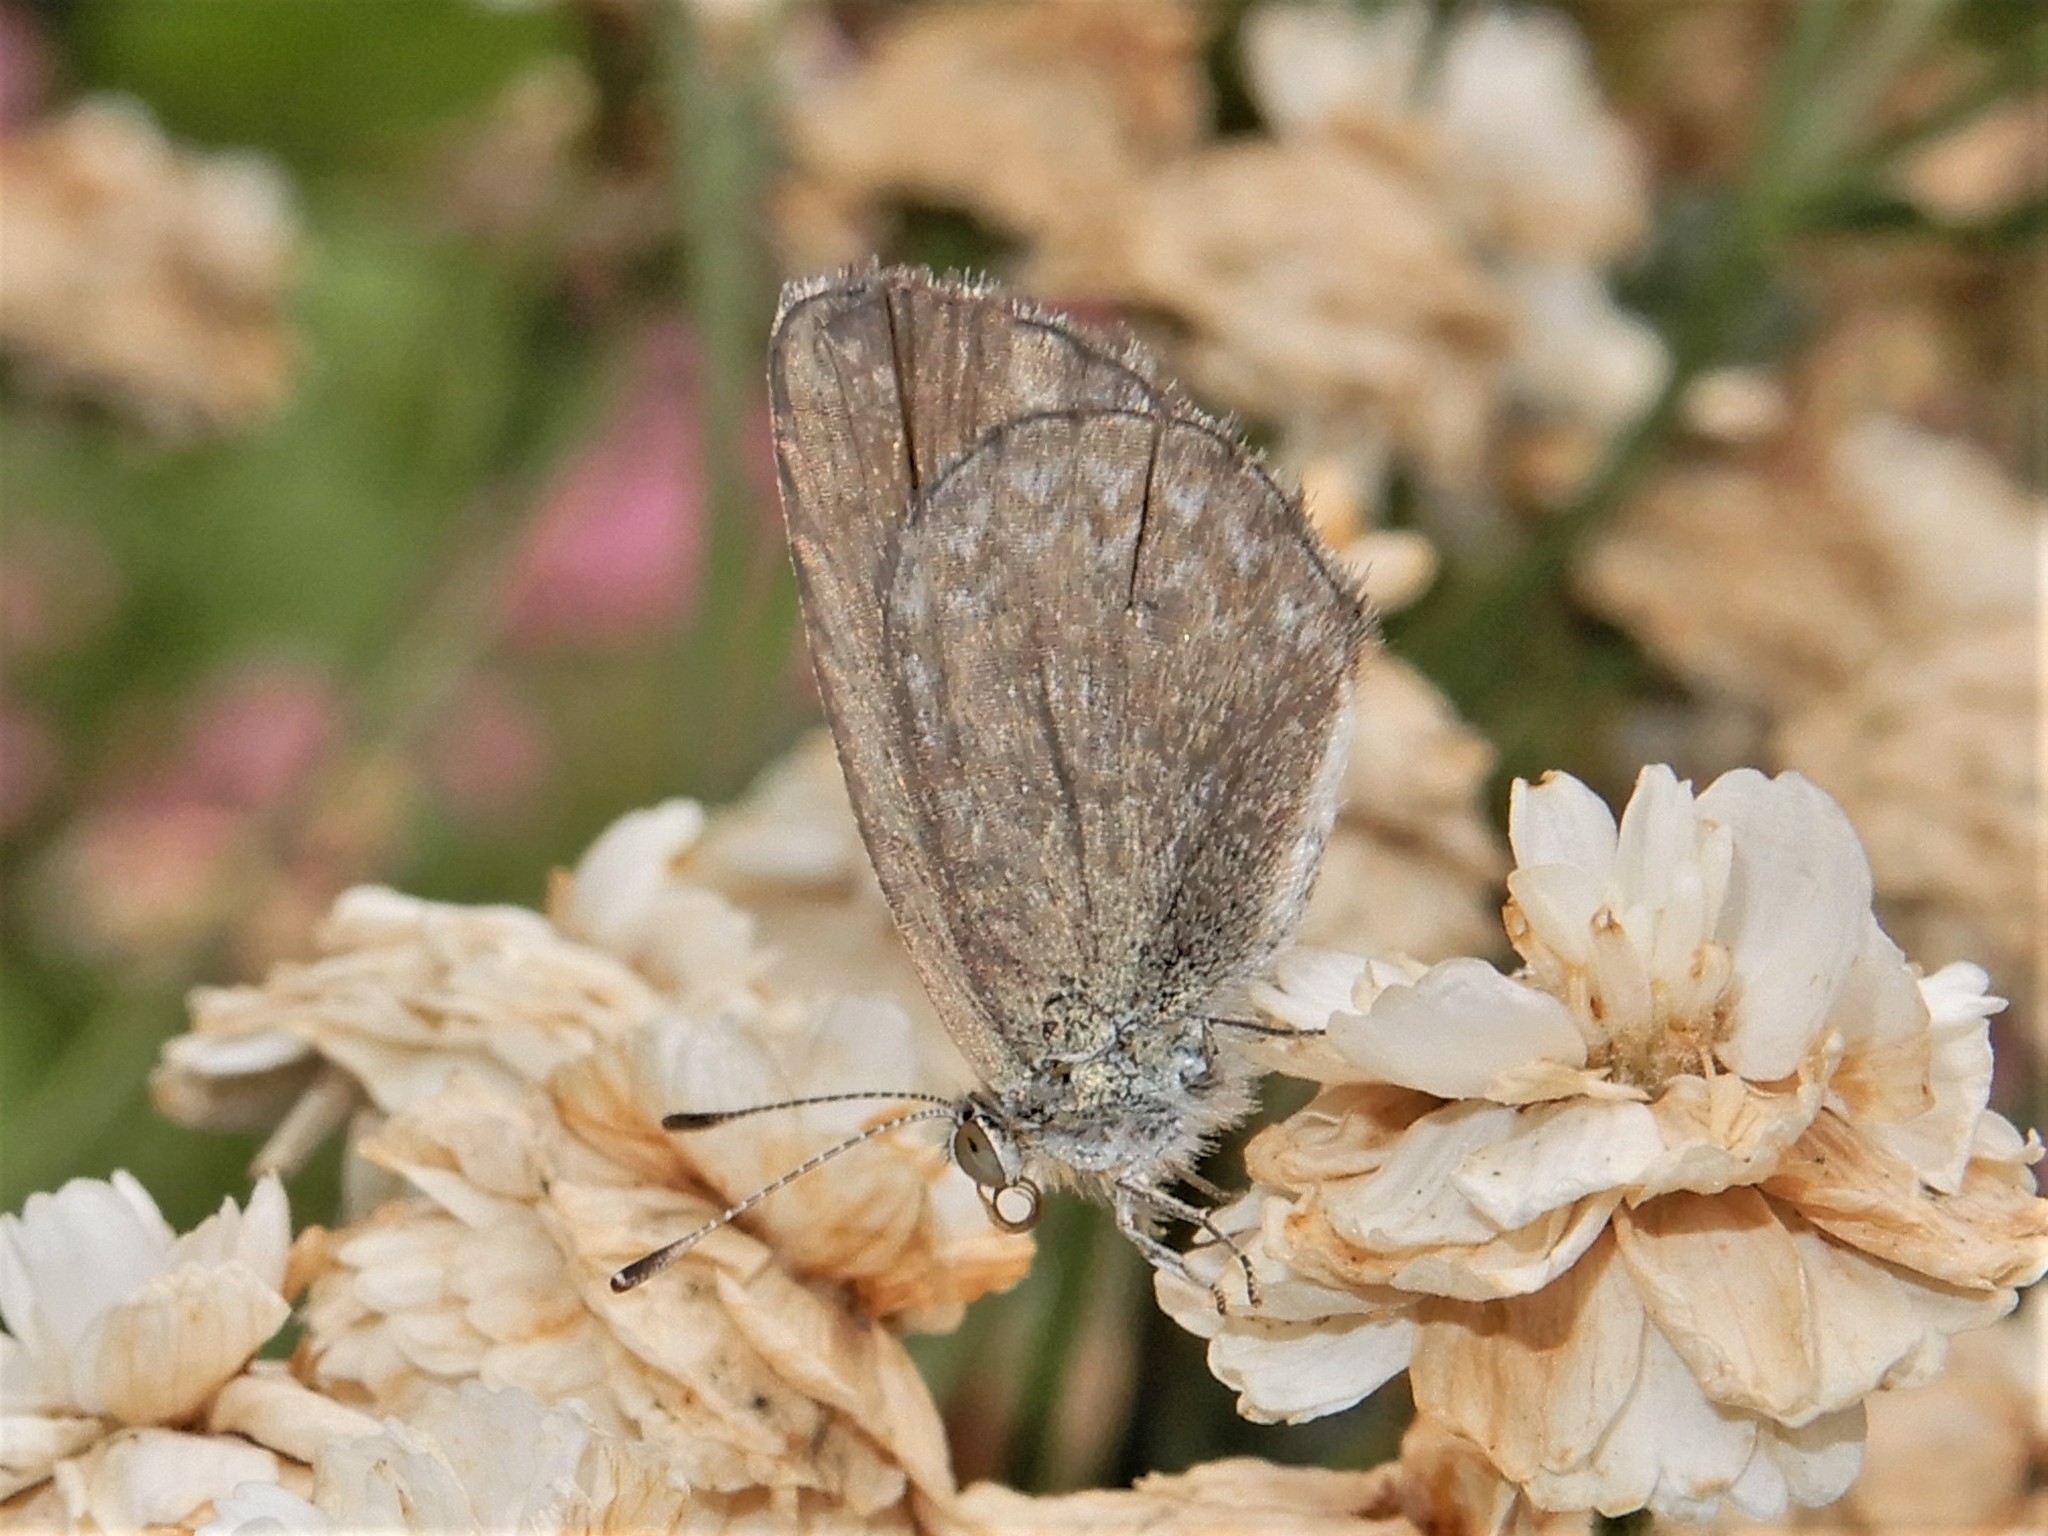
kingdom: Animalia
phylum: Arthropoda
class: Insecta
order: Lepidoptera
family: Lycaenidae
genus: Zizina
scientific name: Zizina labradus
